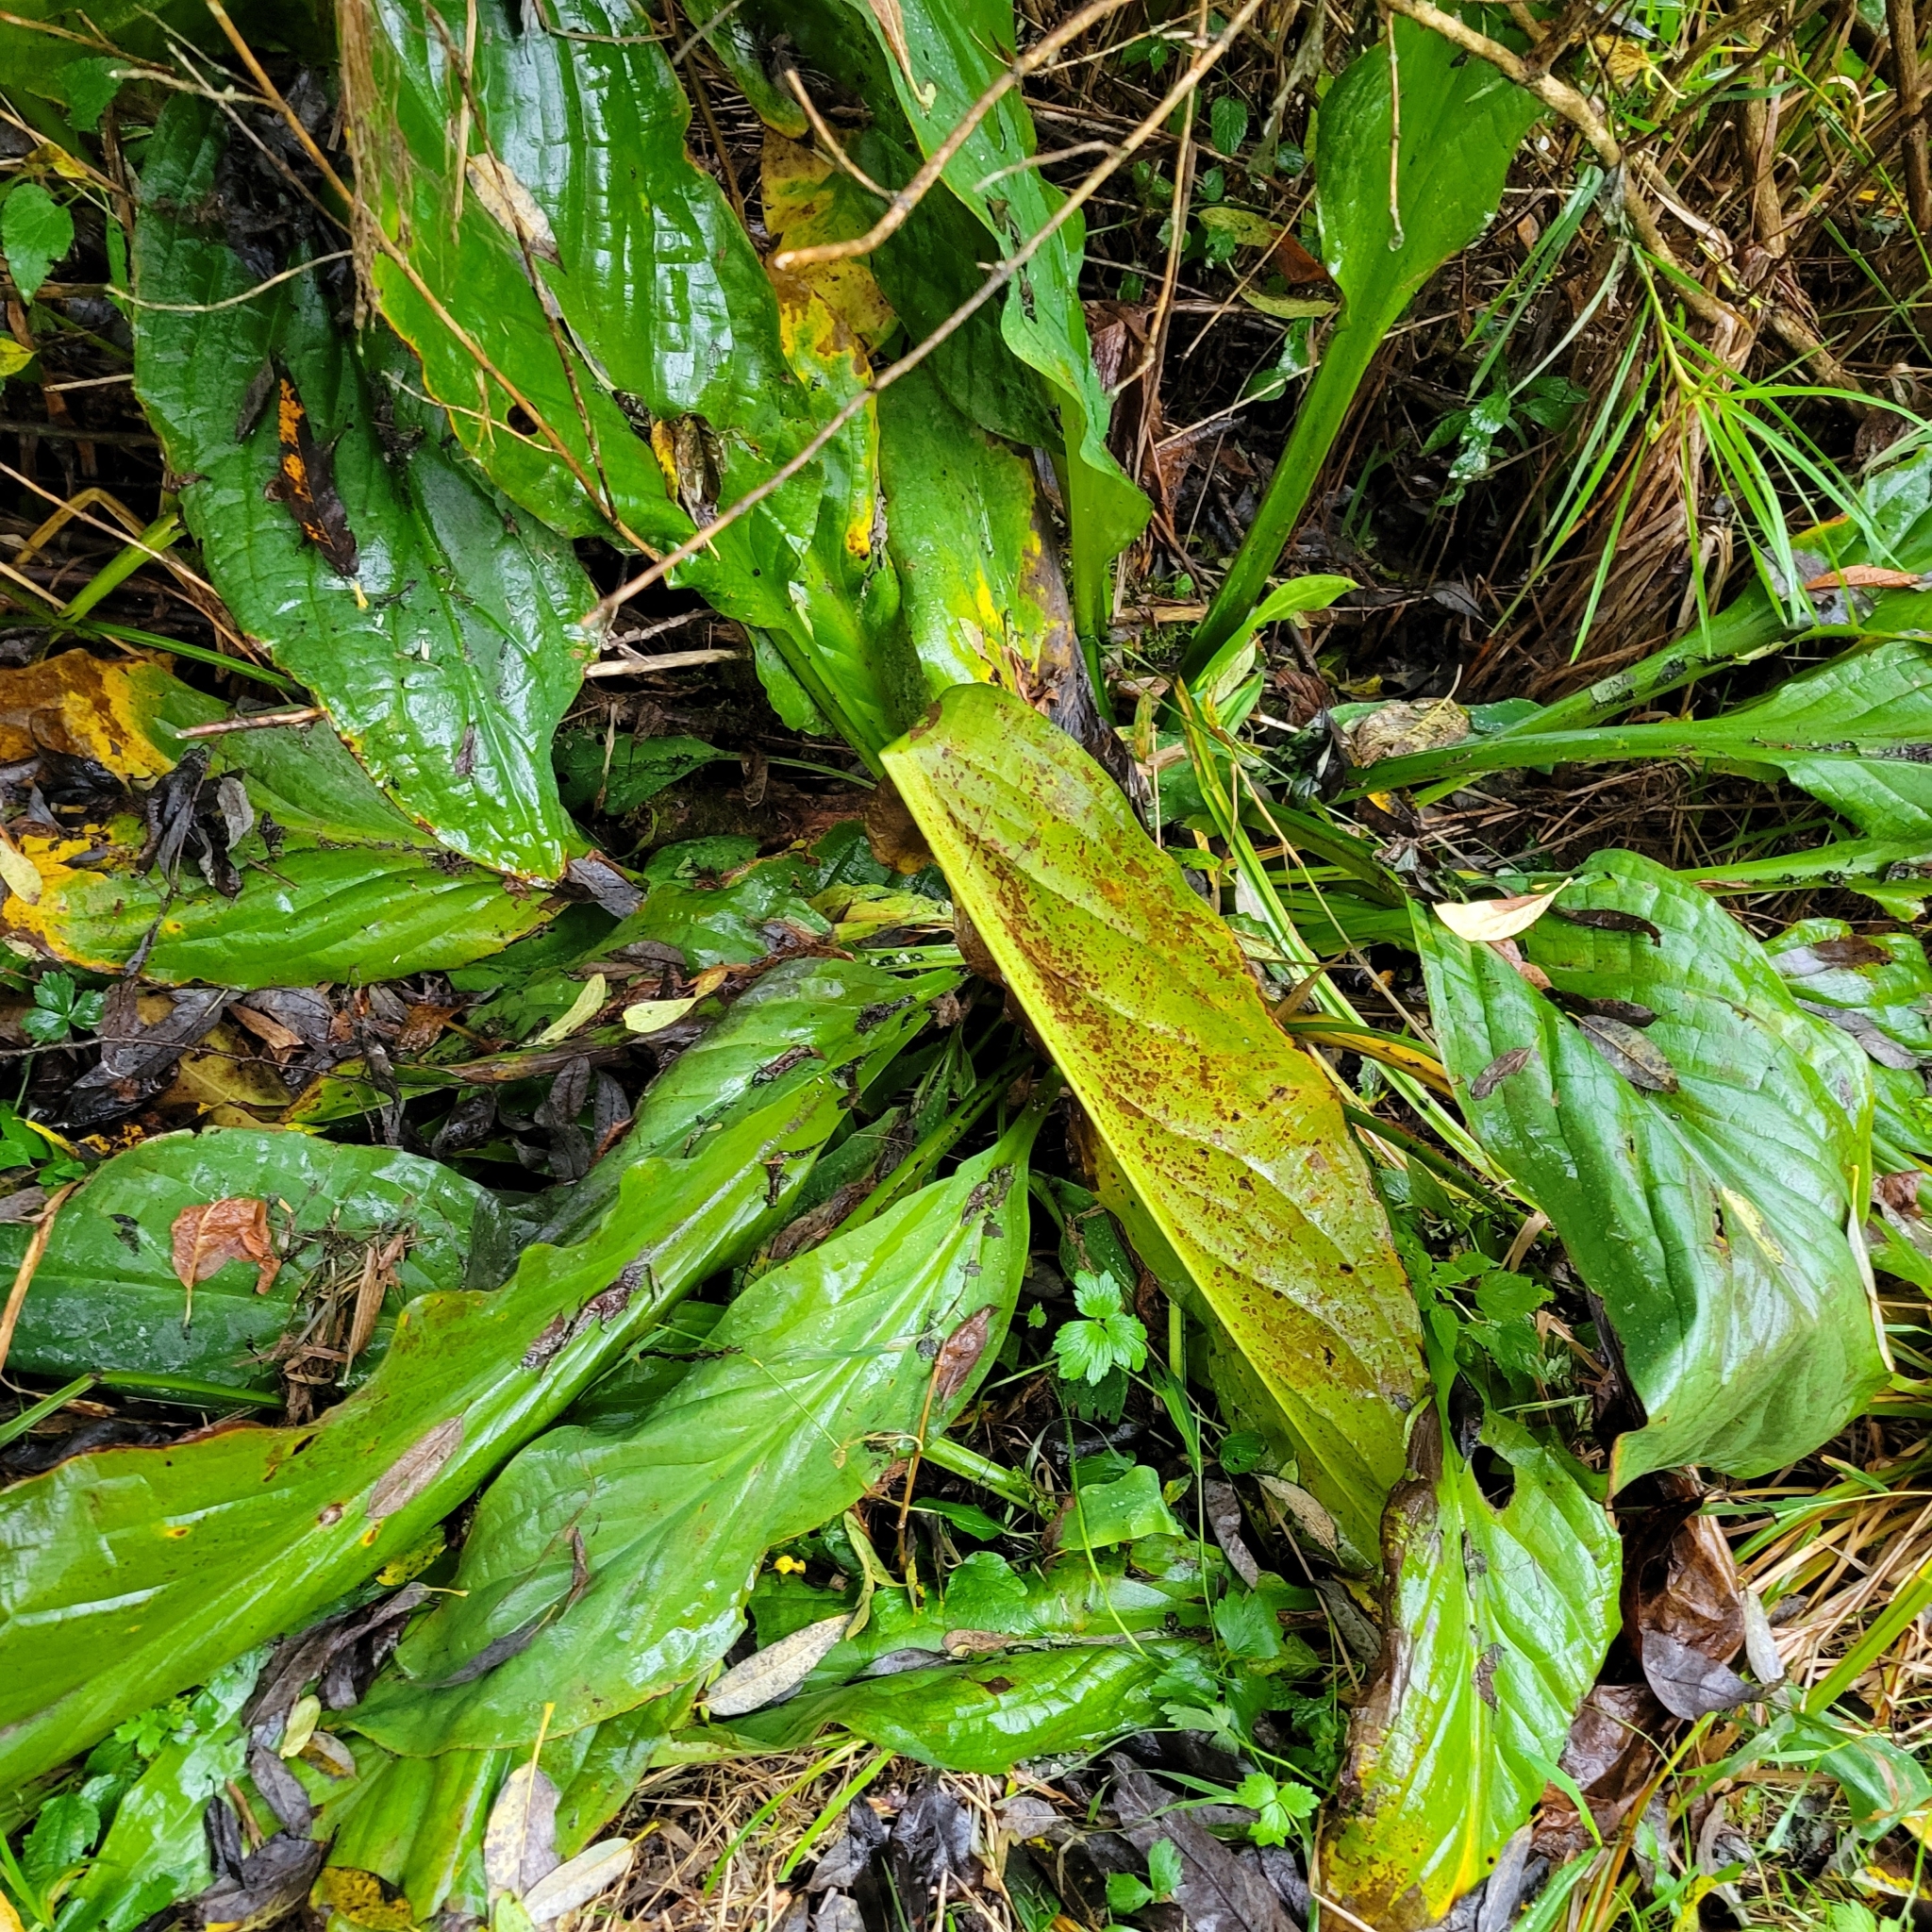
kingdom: Plantae
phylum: Tracheophyta
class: Liliopsida
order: Alismatales
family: Araceae
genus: Lysichiton
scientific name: Lysichiton americanus
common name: American skunk cabbage
